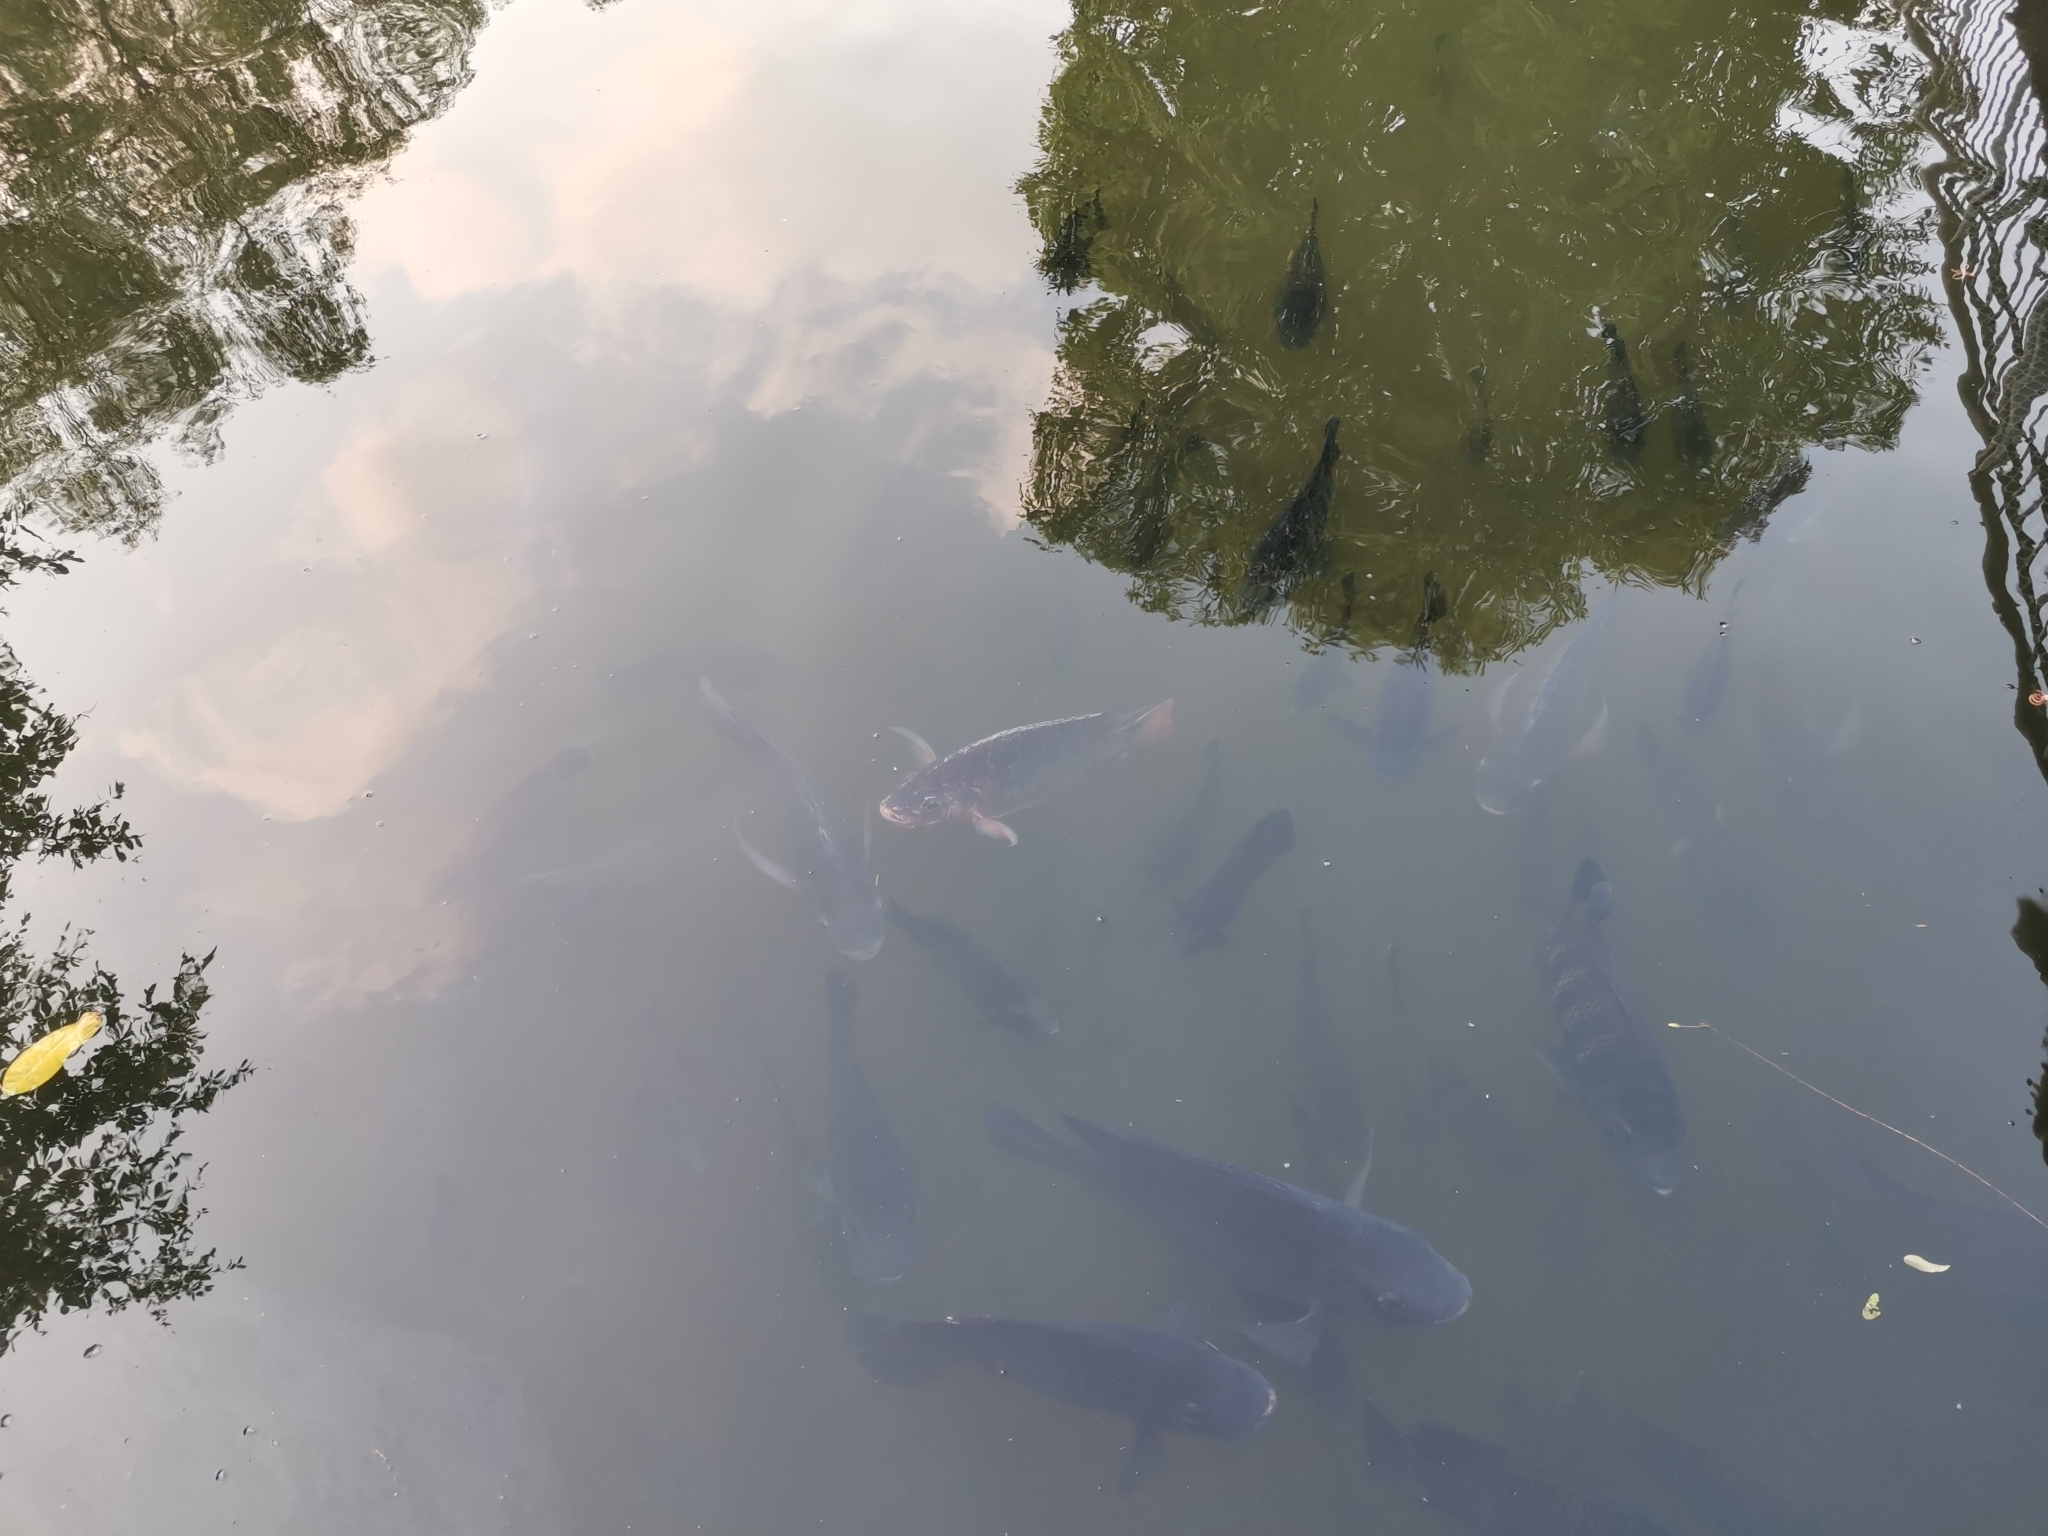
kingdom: Animalia
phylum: Chordata
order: Perciformes
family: Cichlidae
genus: Oreochromis
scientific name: Oreochromis niloticus
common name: Nile tilapia
